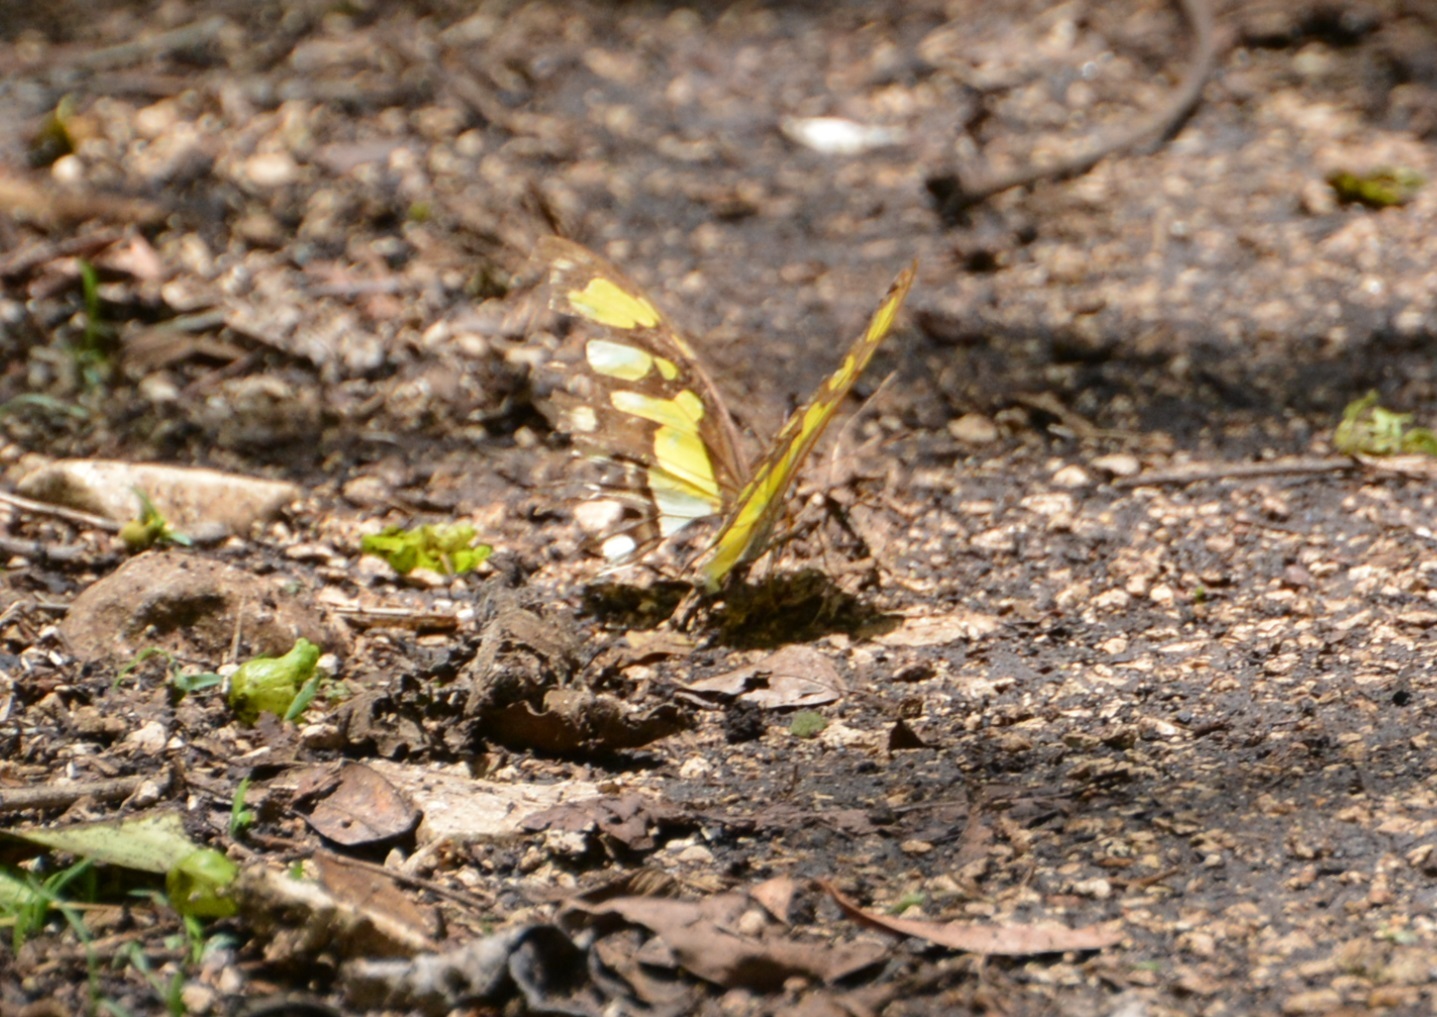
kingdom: Animalia
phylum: Arthropoda
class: Insecta
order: Lepidoptera
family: Nymphalidae
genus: Siproeta
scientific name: Siproeta stelenes
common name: Malachite
